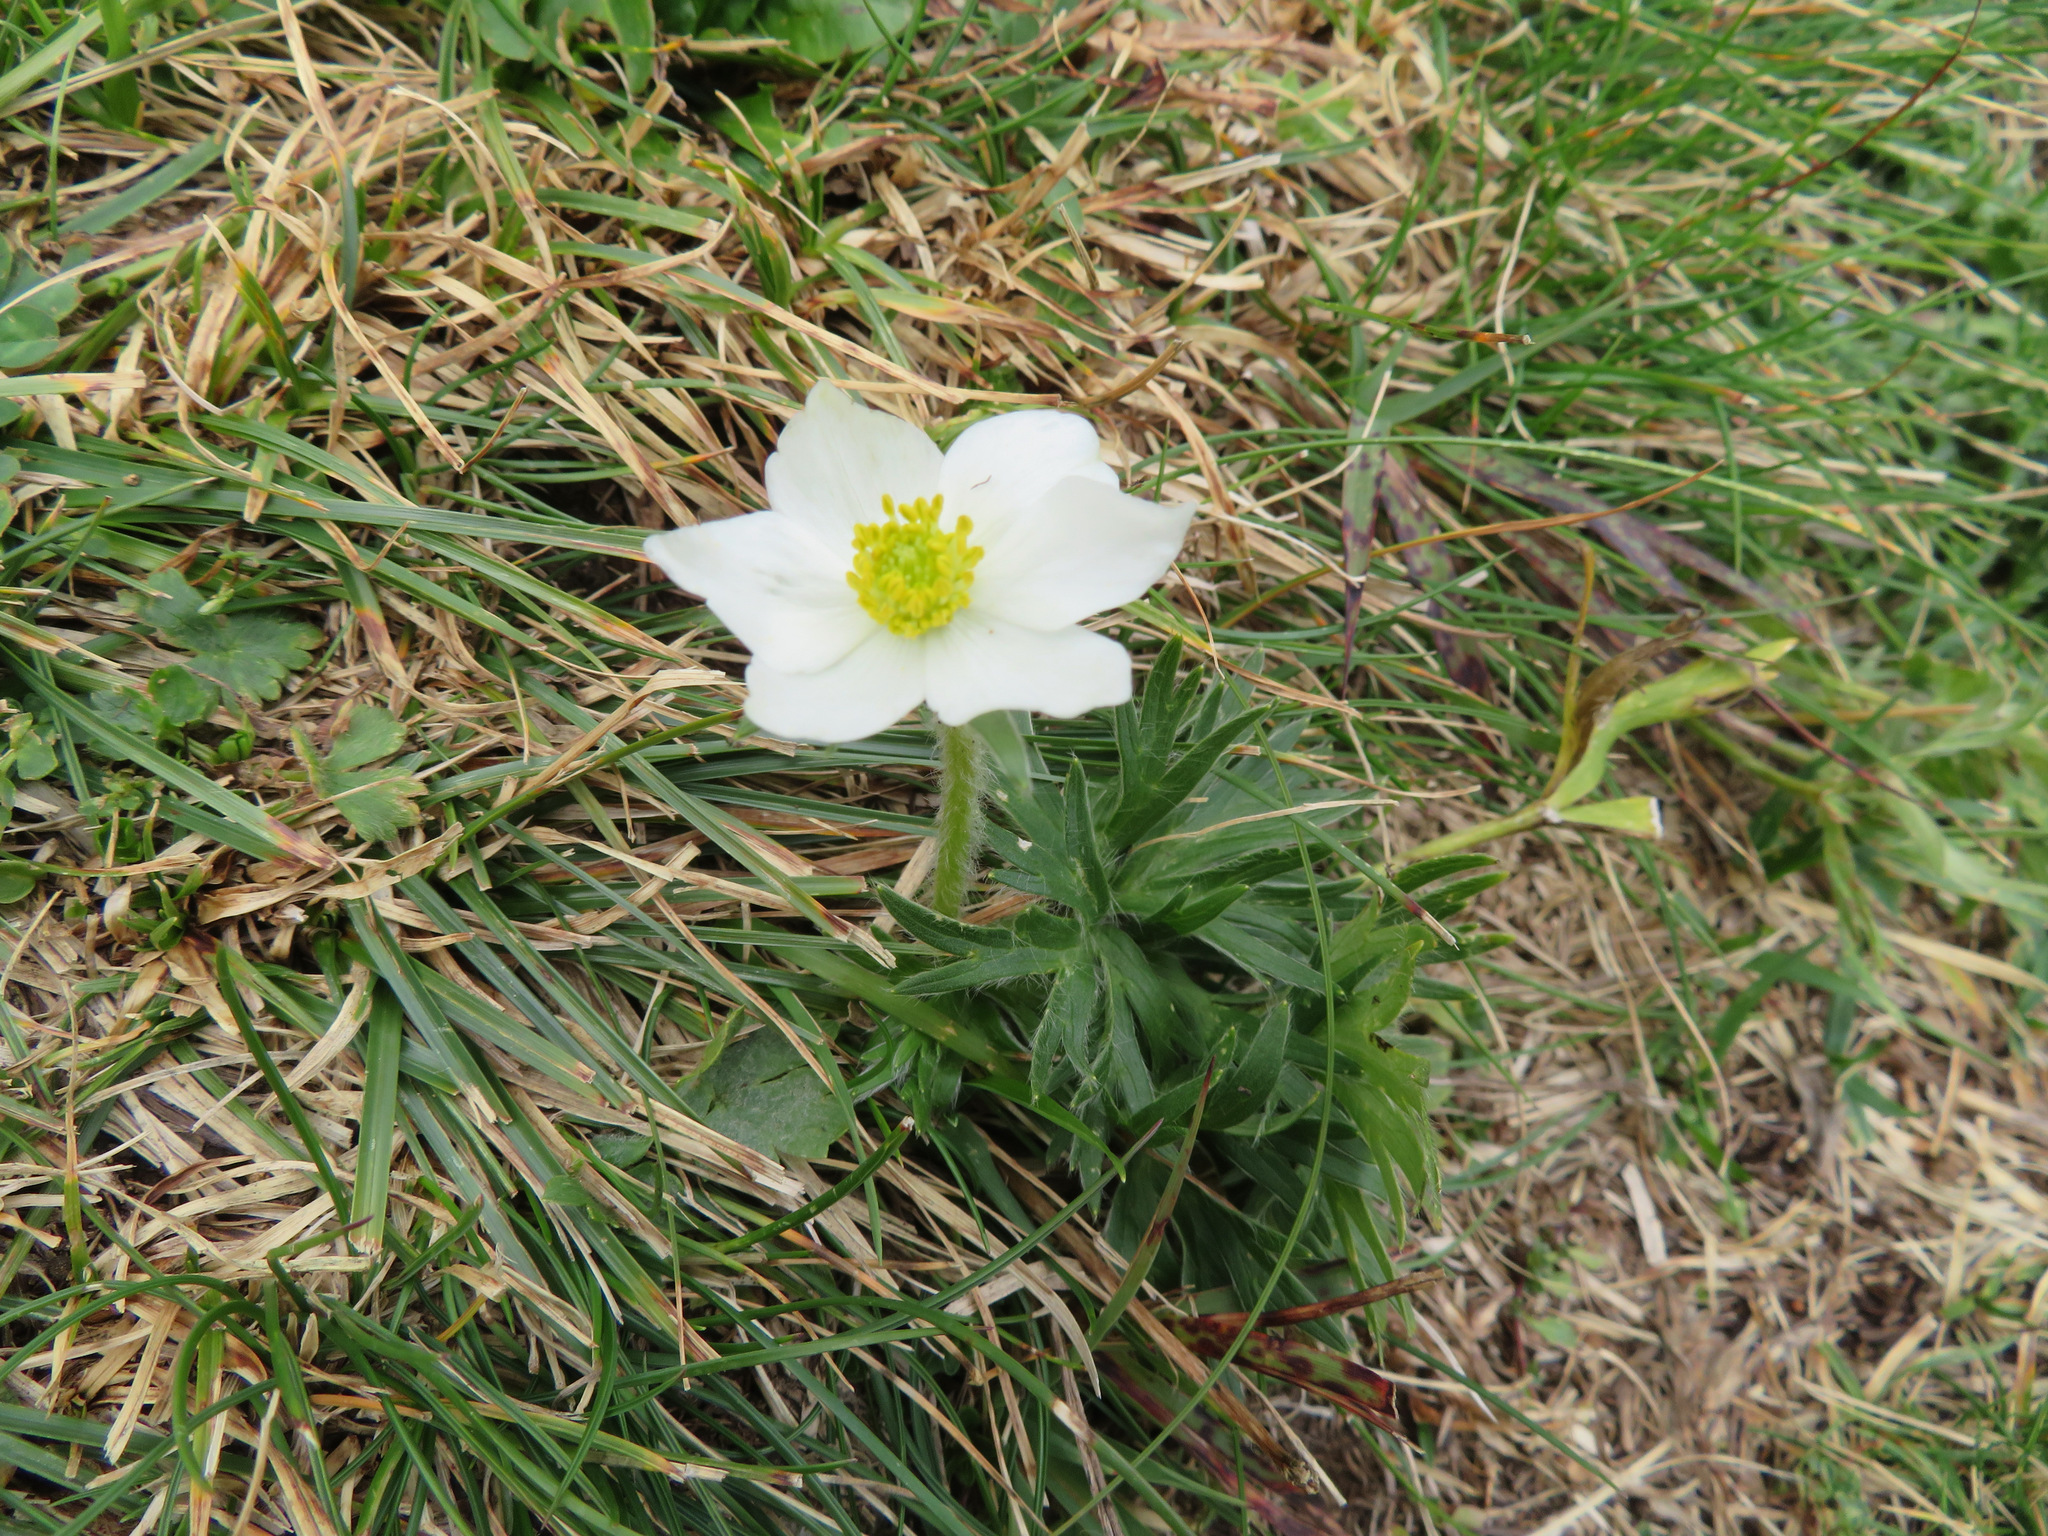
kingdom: Plantae
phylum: Tracheophyta
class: Magnoliopsida
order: Ranunculales
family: Ranunculaceae
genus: Anemonastrum
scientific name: Anemonastrum narcissiflorum
